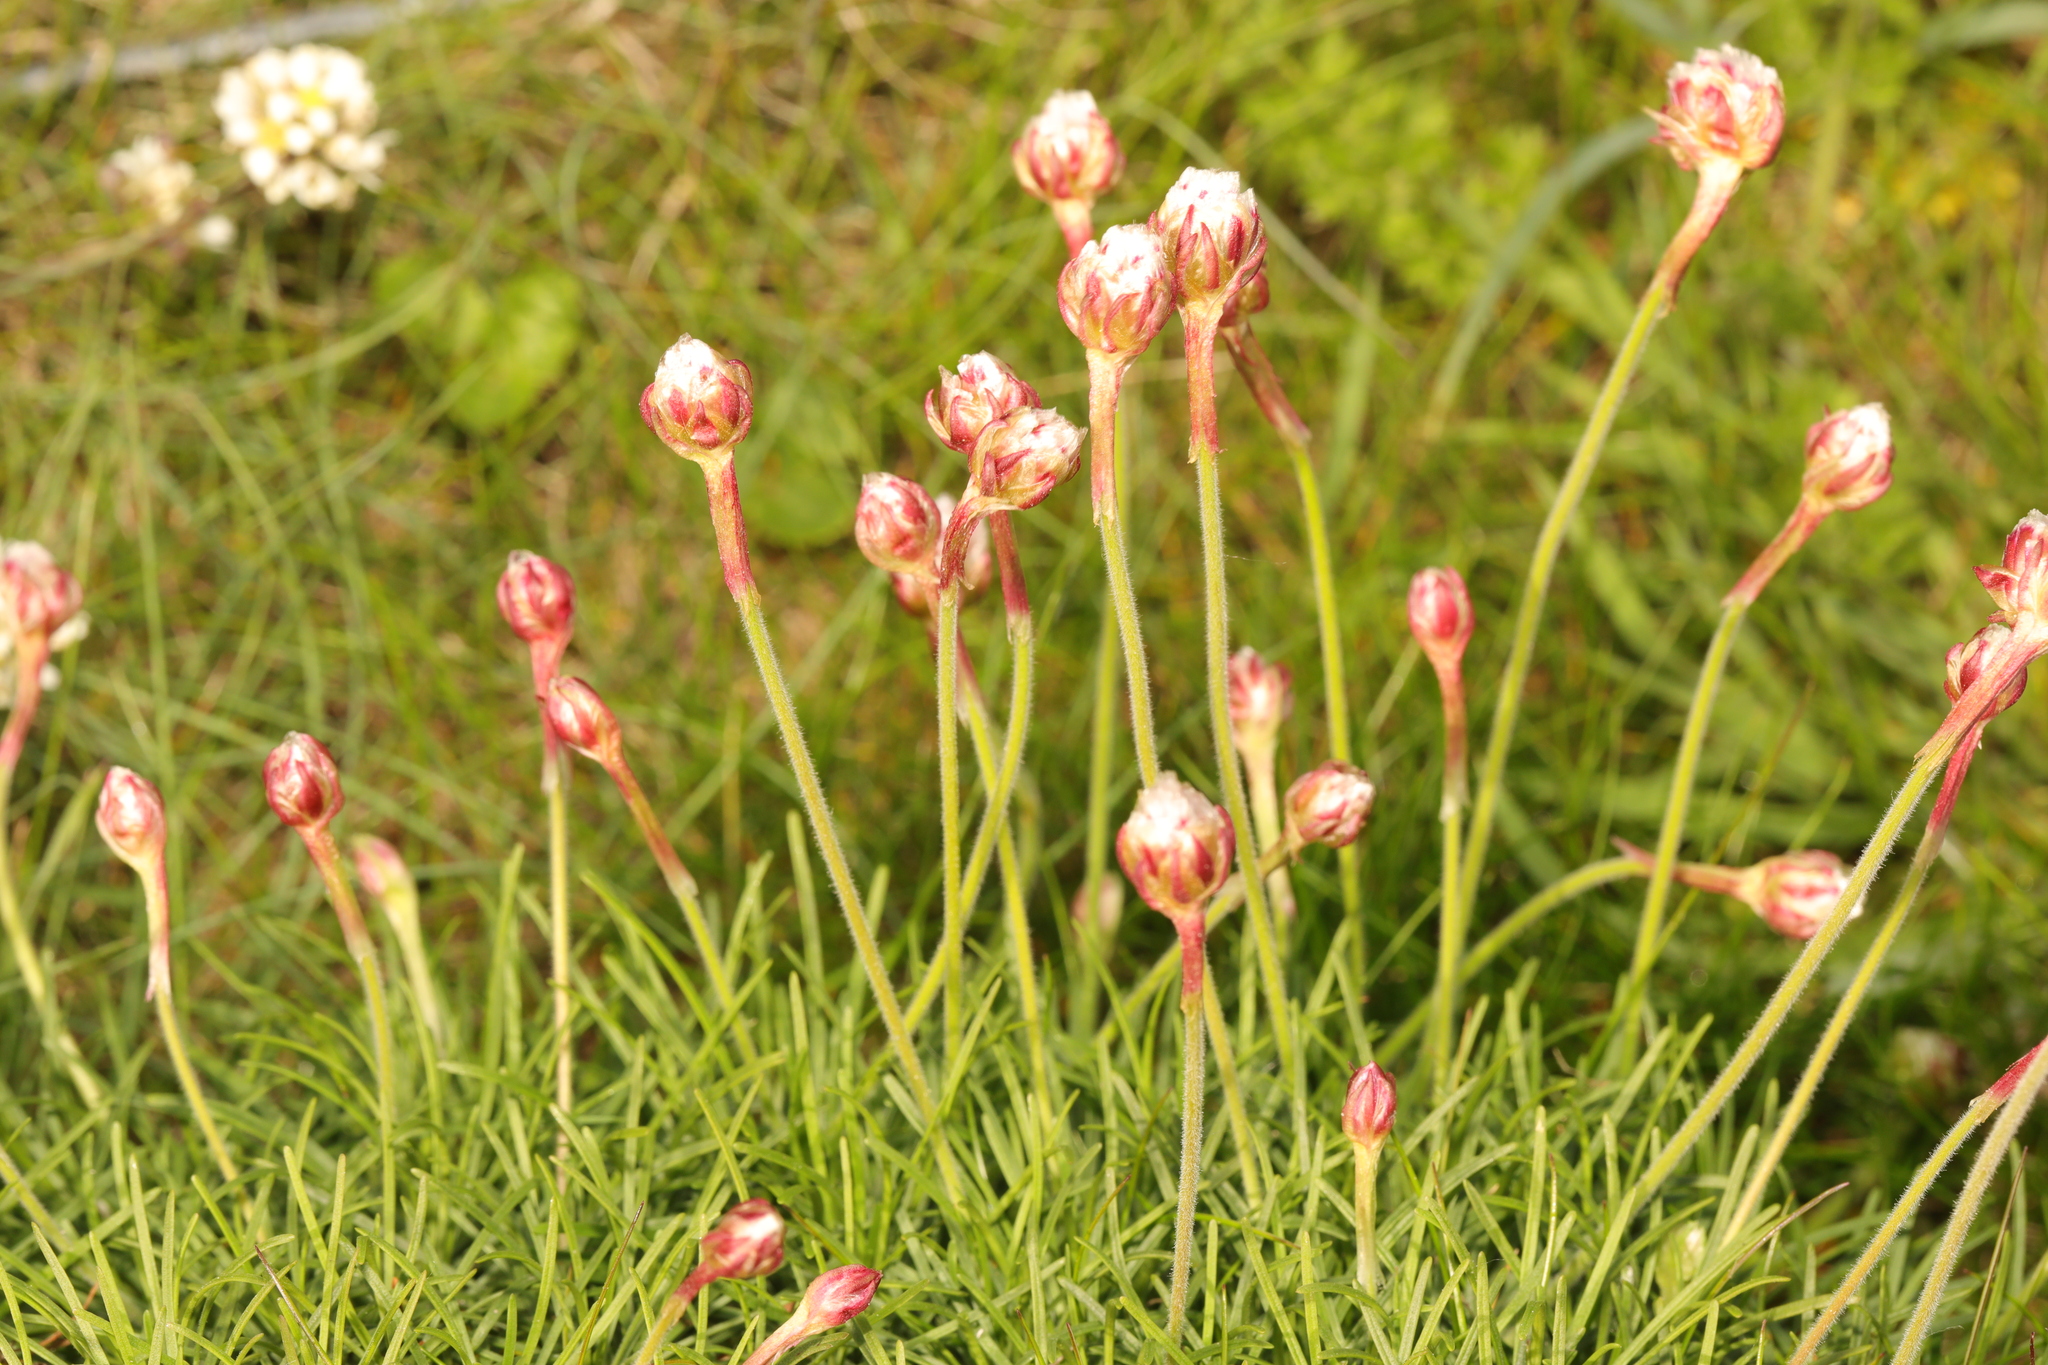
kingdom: Plantae
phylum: Tracheophyta
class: Magnoliopsida
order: Caryophyllales
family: Plumbaginaceae
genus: Armeria
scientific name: Armeria maritima
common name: Thrift
